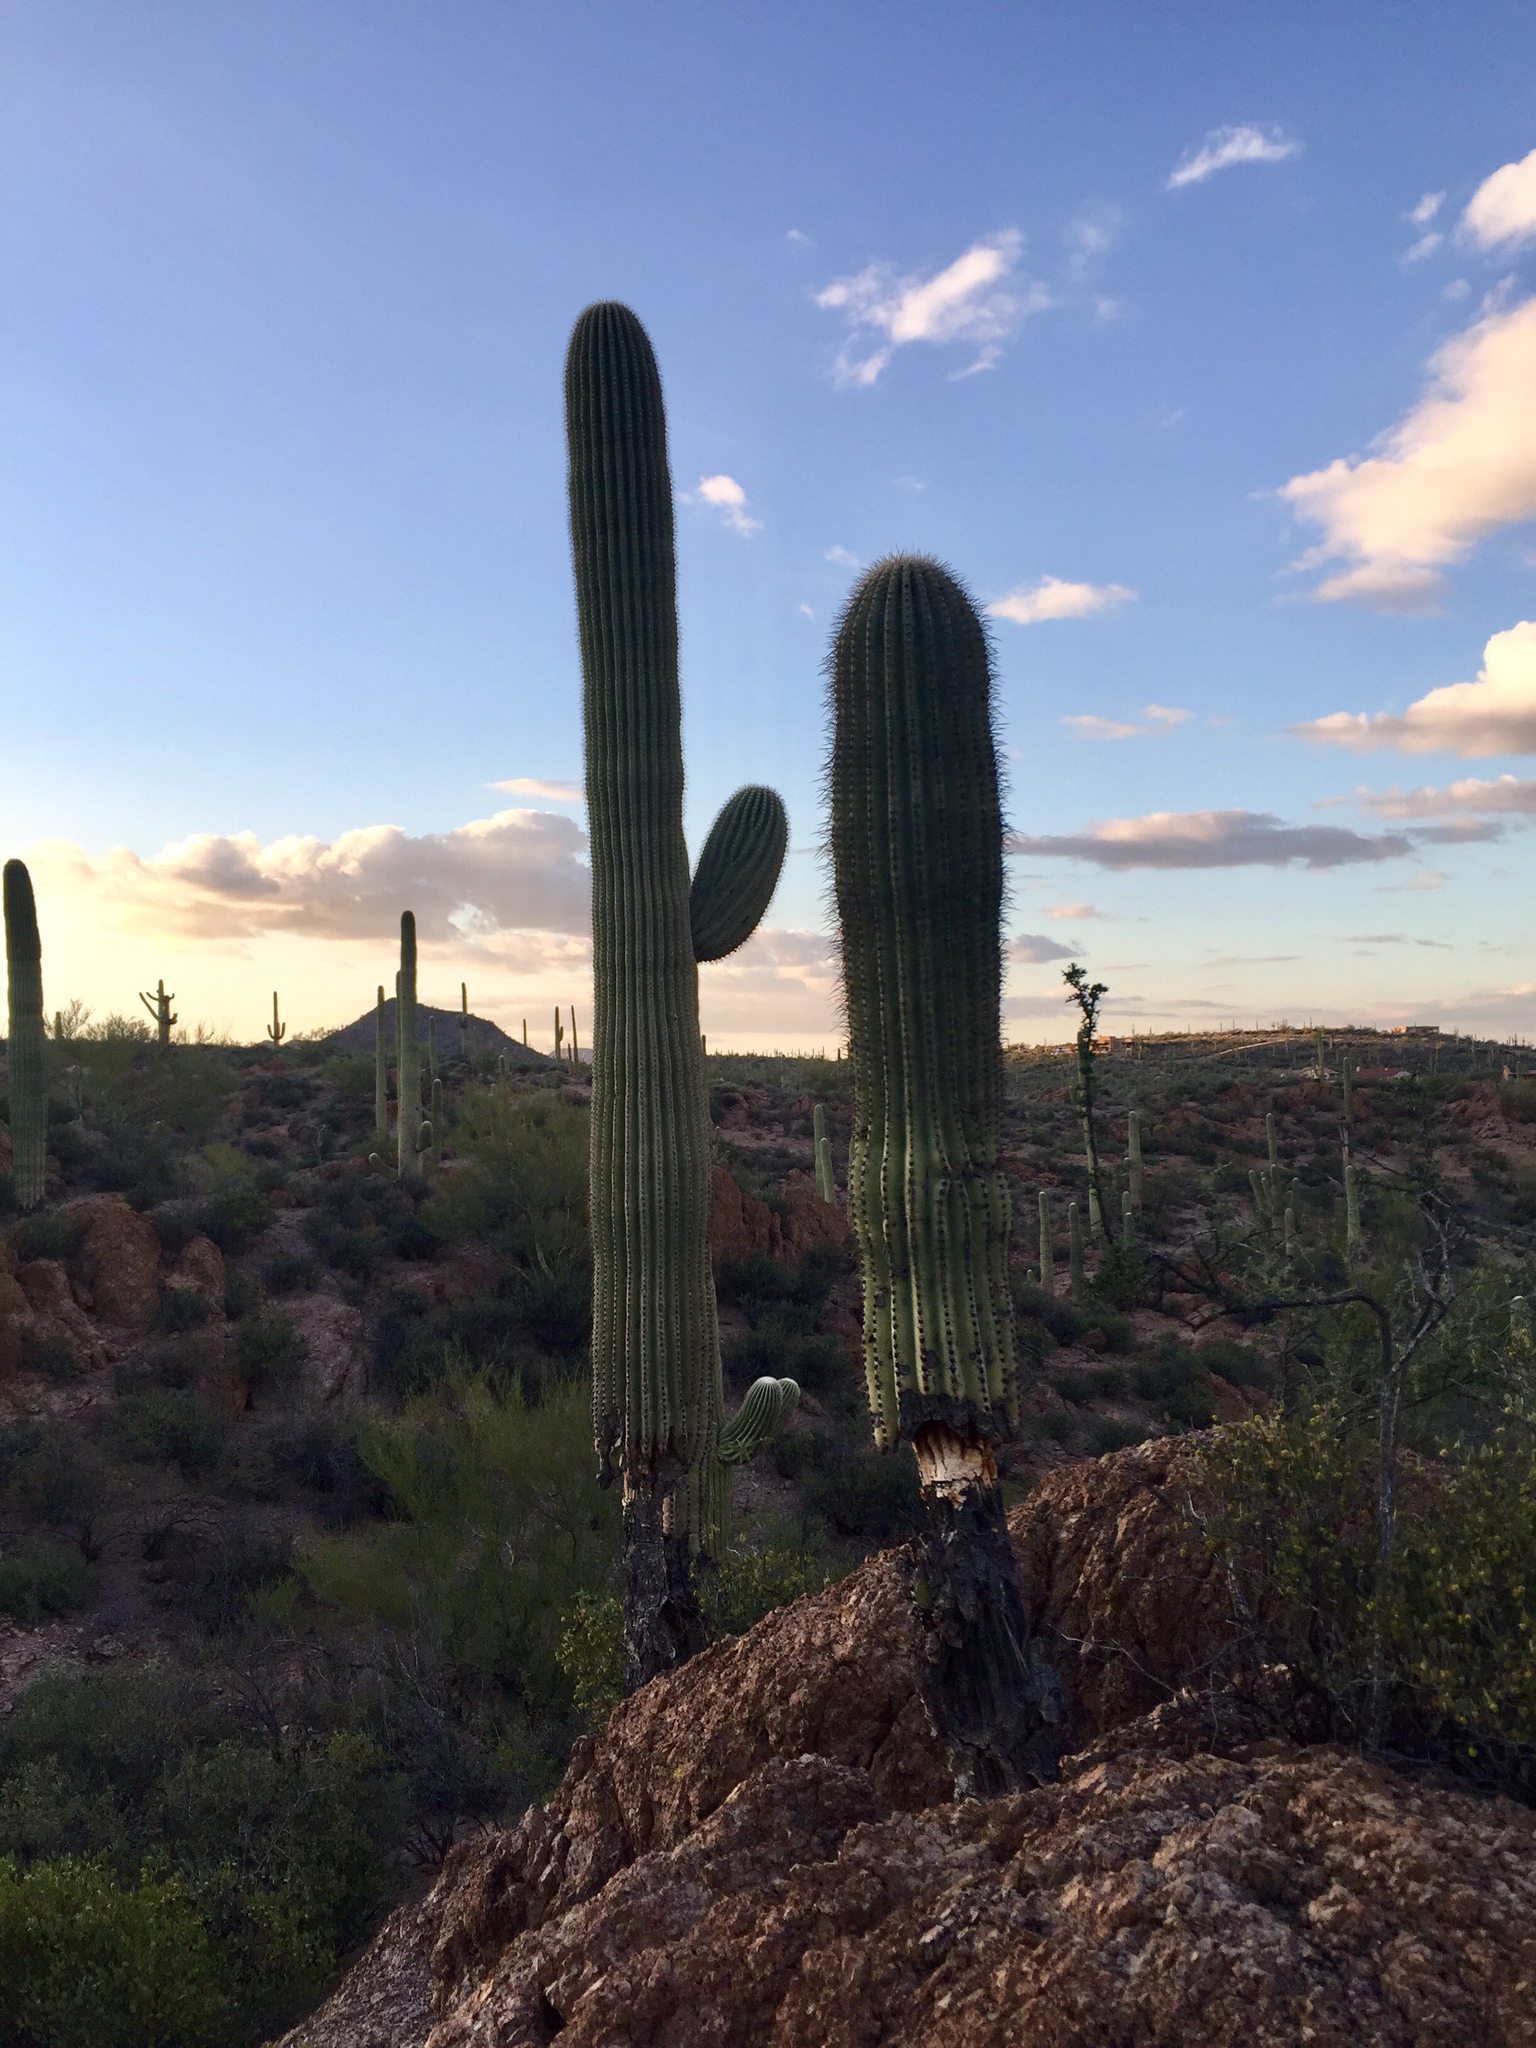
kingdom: Plantae
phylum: Tracheophyta
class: Magnoliopsida
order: Caryophyllales
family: Cactaceae
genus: Carnegiea
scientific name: Carnegiea gigantea
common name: Saguaro
